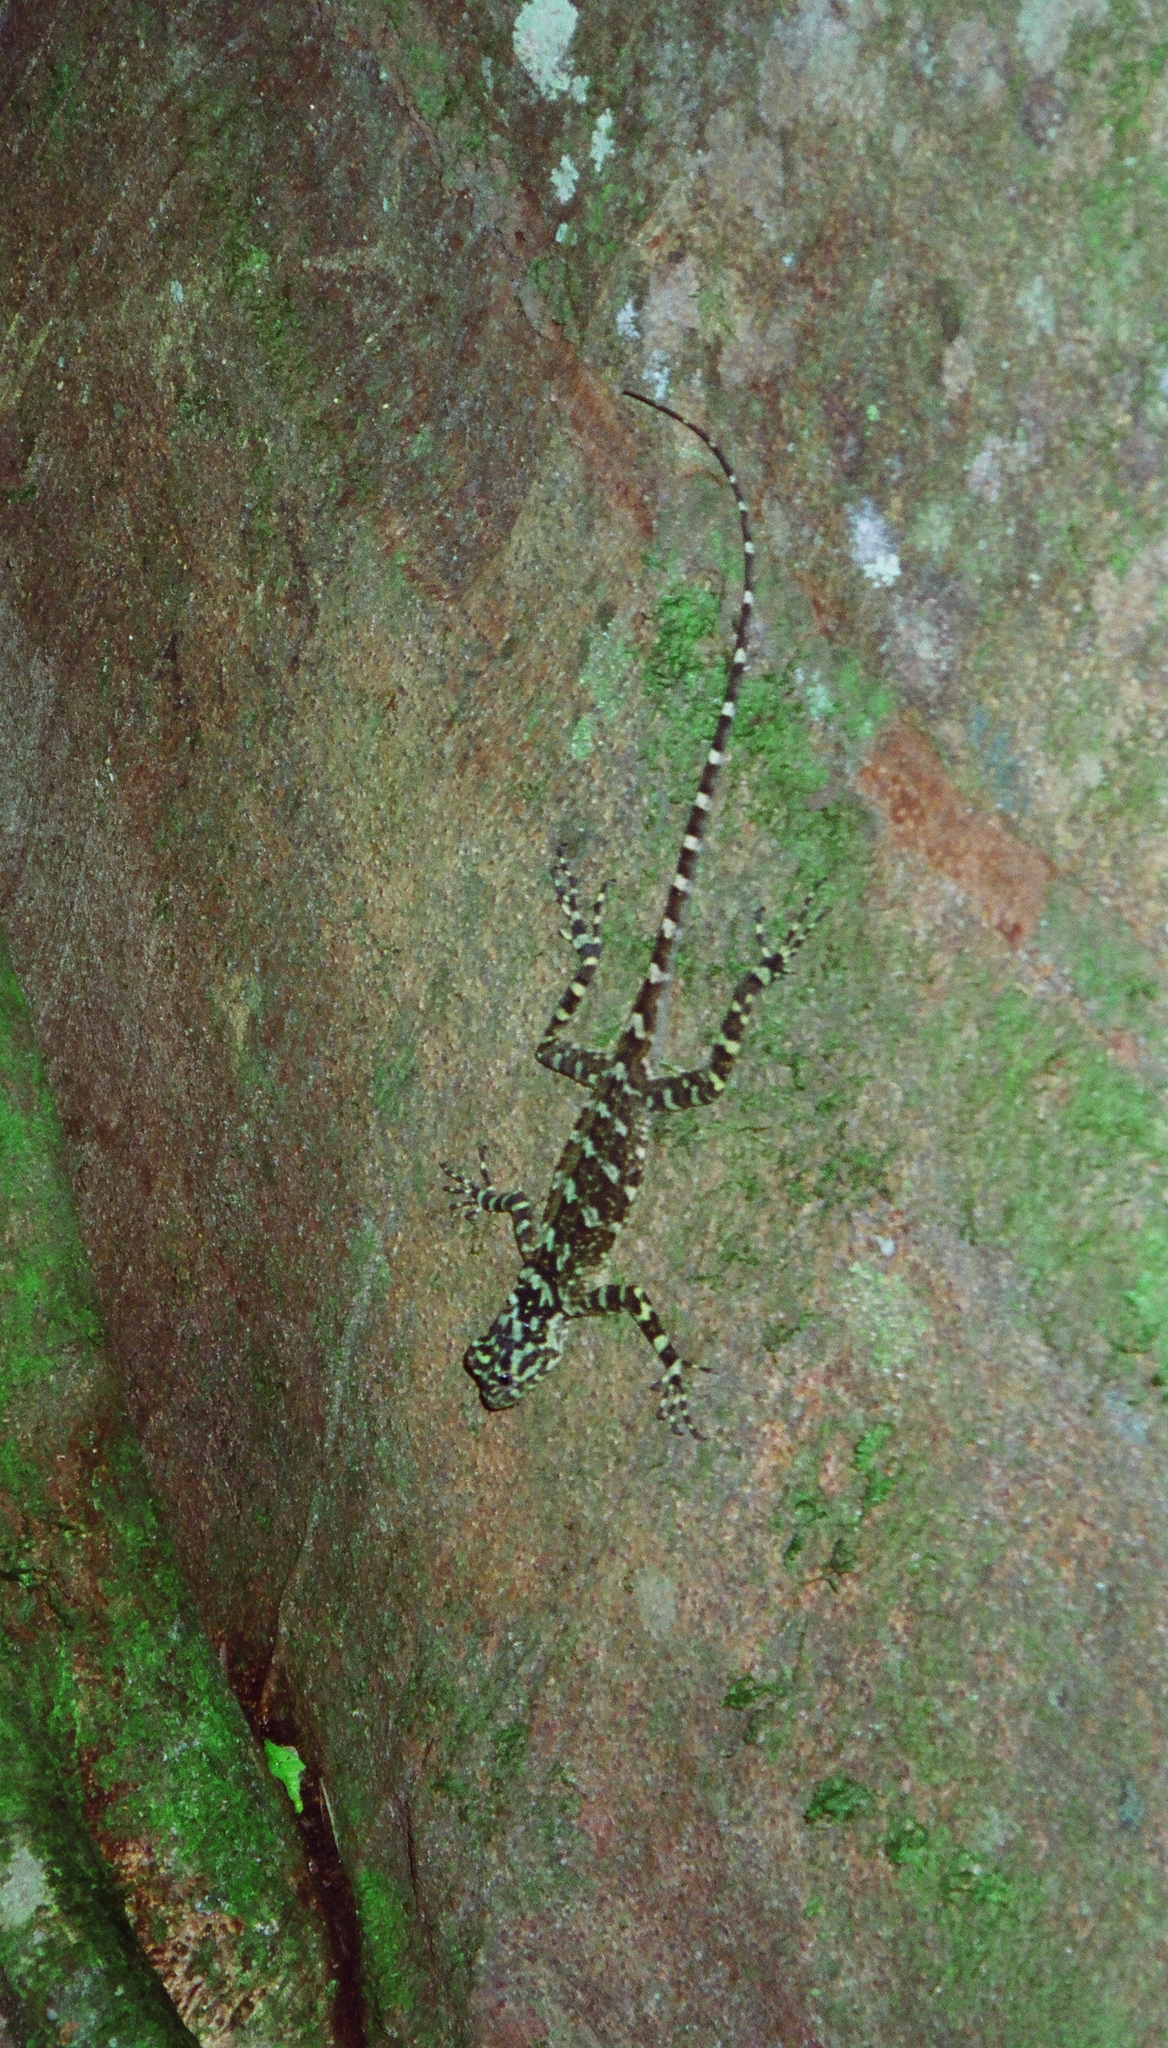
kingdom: Animalia
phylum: Chordata
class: Squamata
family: Tropiduridae
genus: Plica
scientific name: Plica plica
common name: Tree runner
